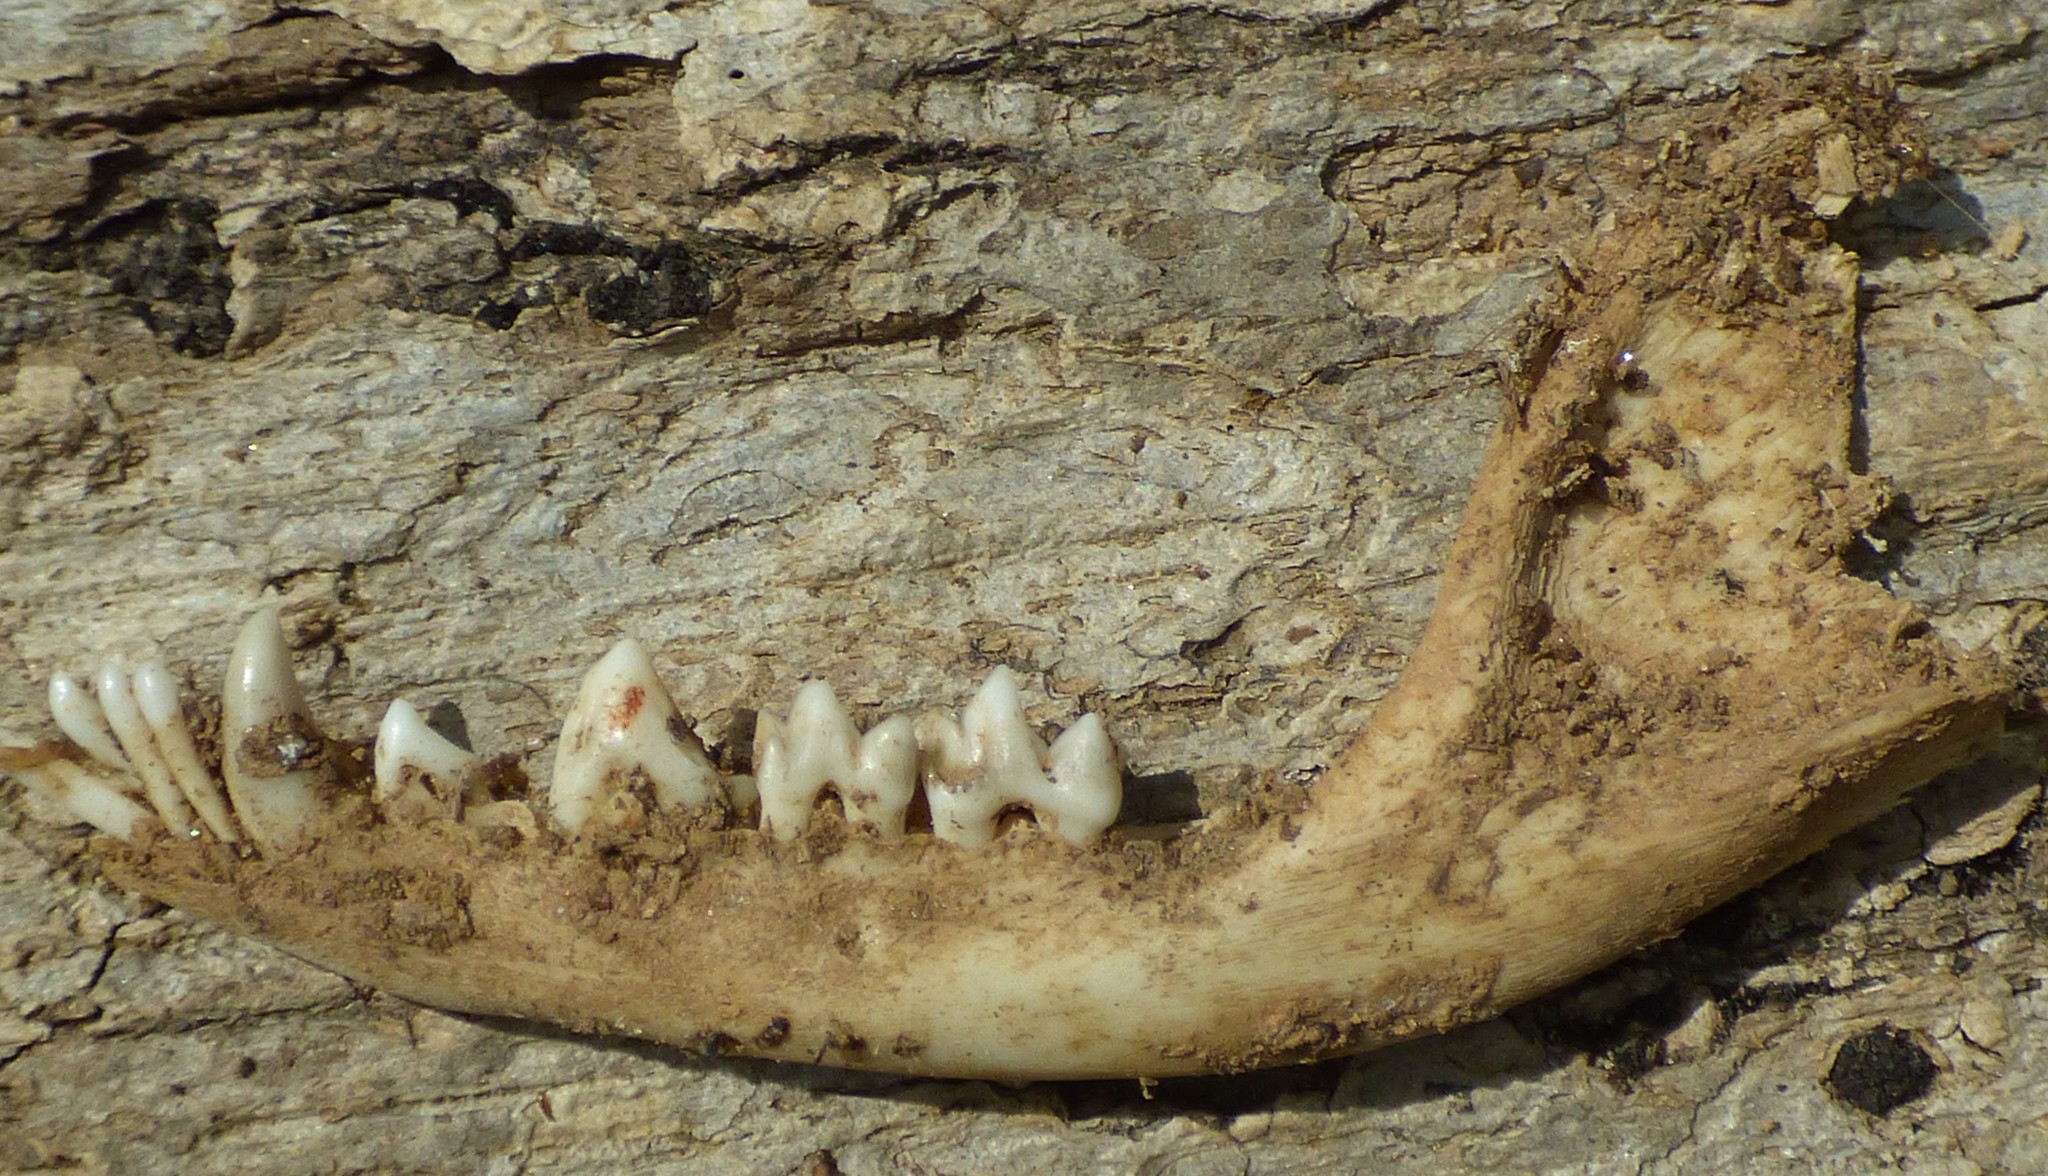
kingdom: Animalia
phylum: Chordata
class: Mammalia
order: Didelphimorphia
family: Didelphidae
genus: Didelphis
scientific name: Didelphis virginiana
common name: Virginia opossum
